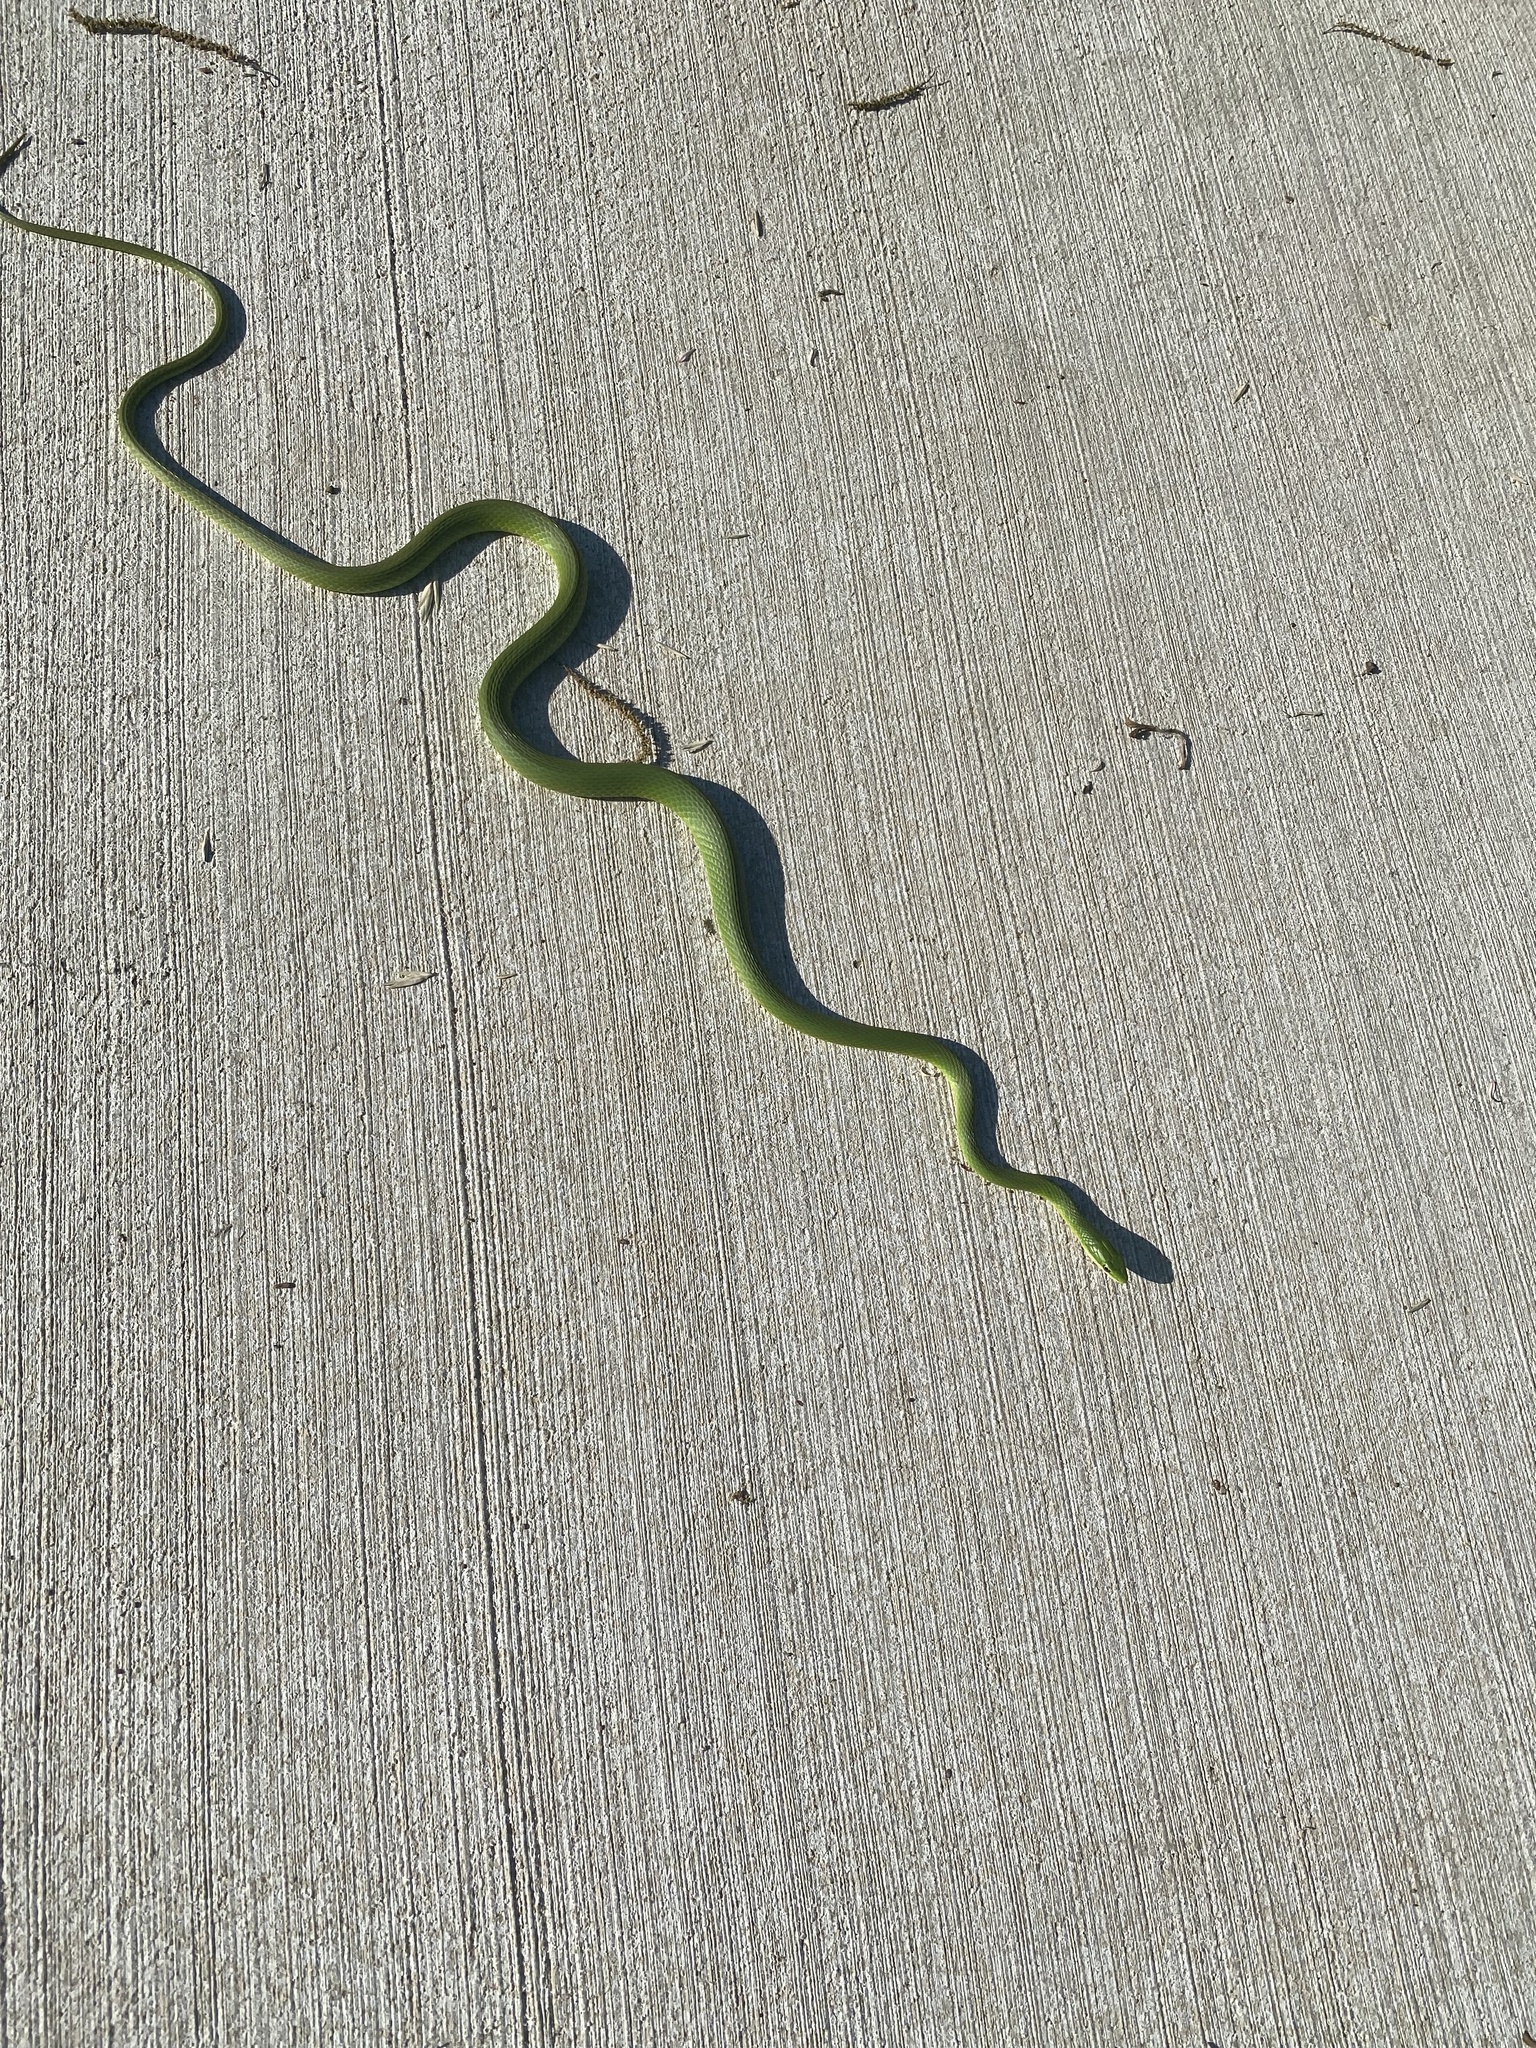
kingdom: Animalia
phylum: Chordata
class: Squamata
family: Colubridae
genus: Opheodrys
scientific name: Opheodrys aestivus
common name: Rough greensnake
